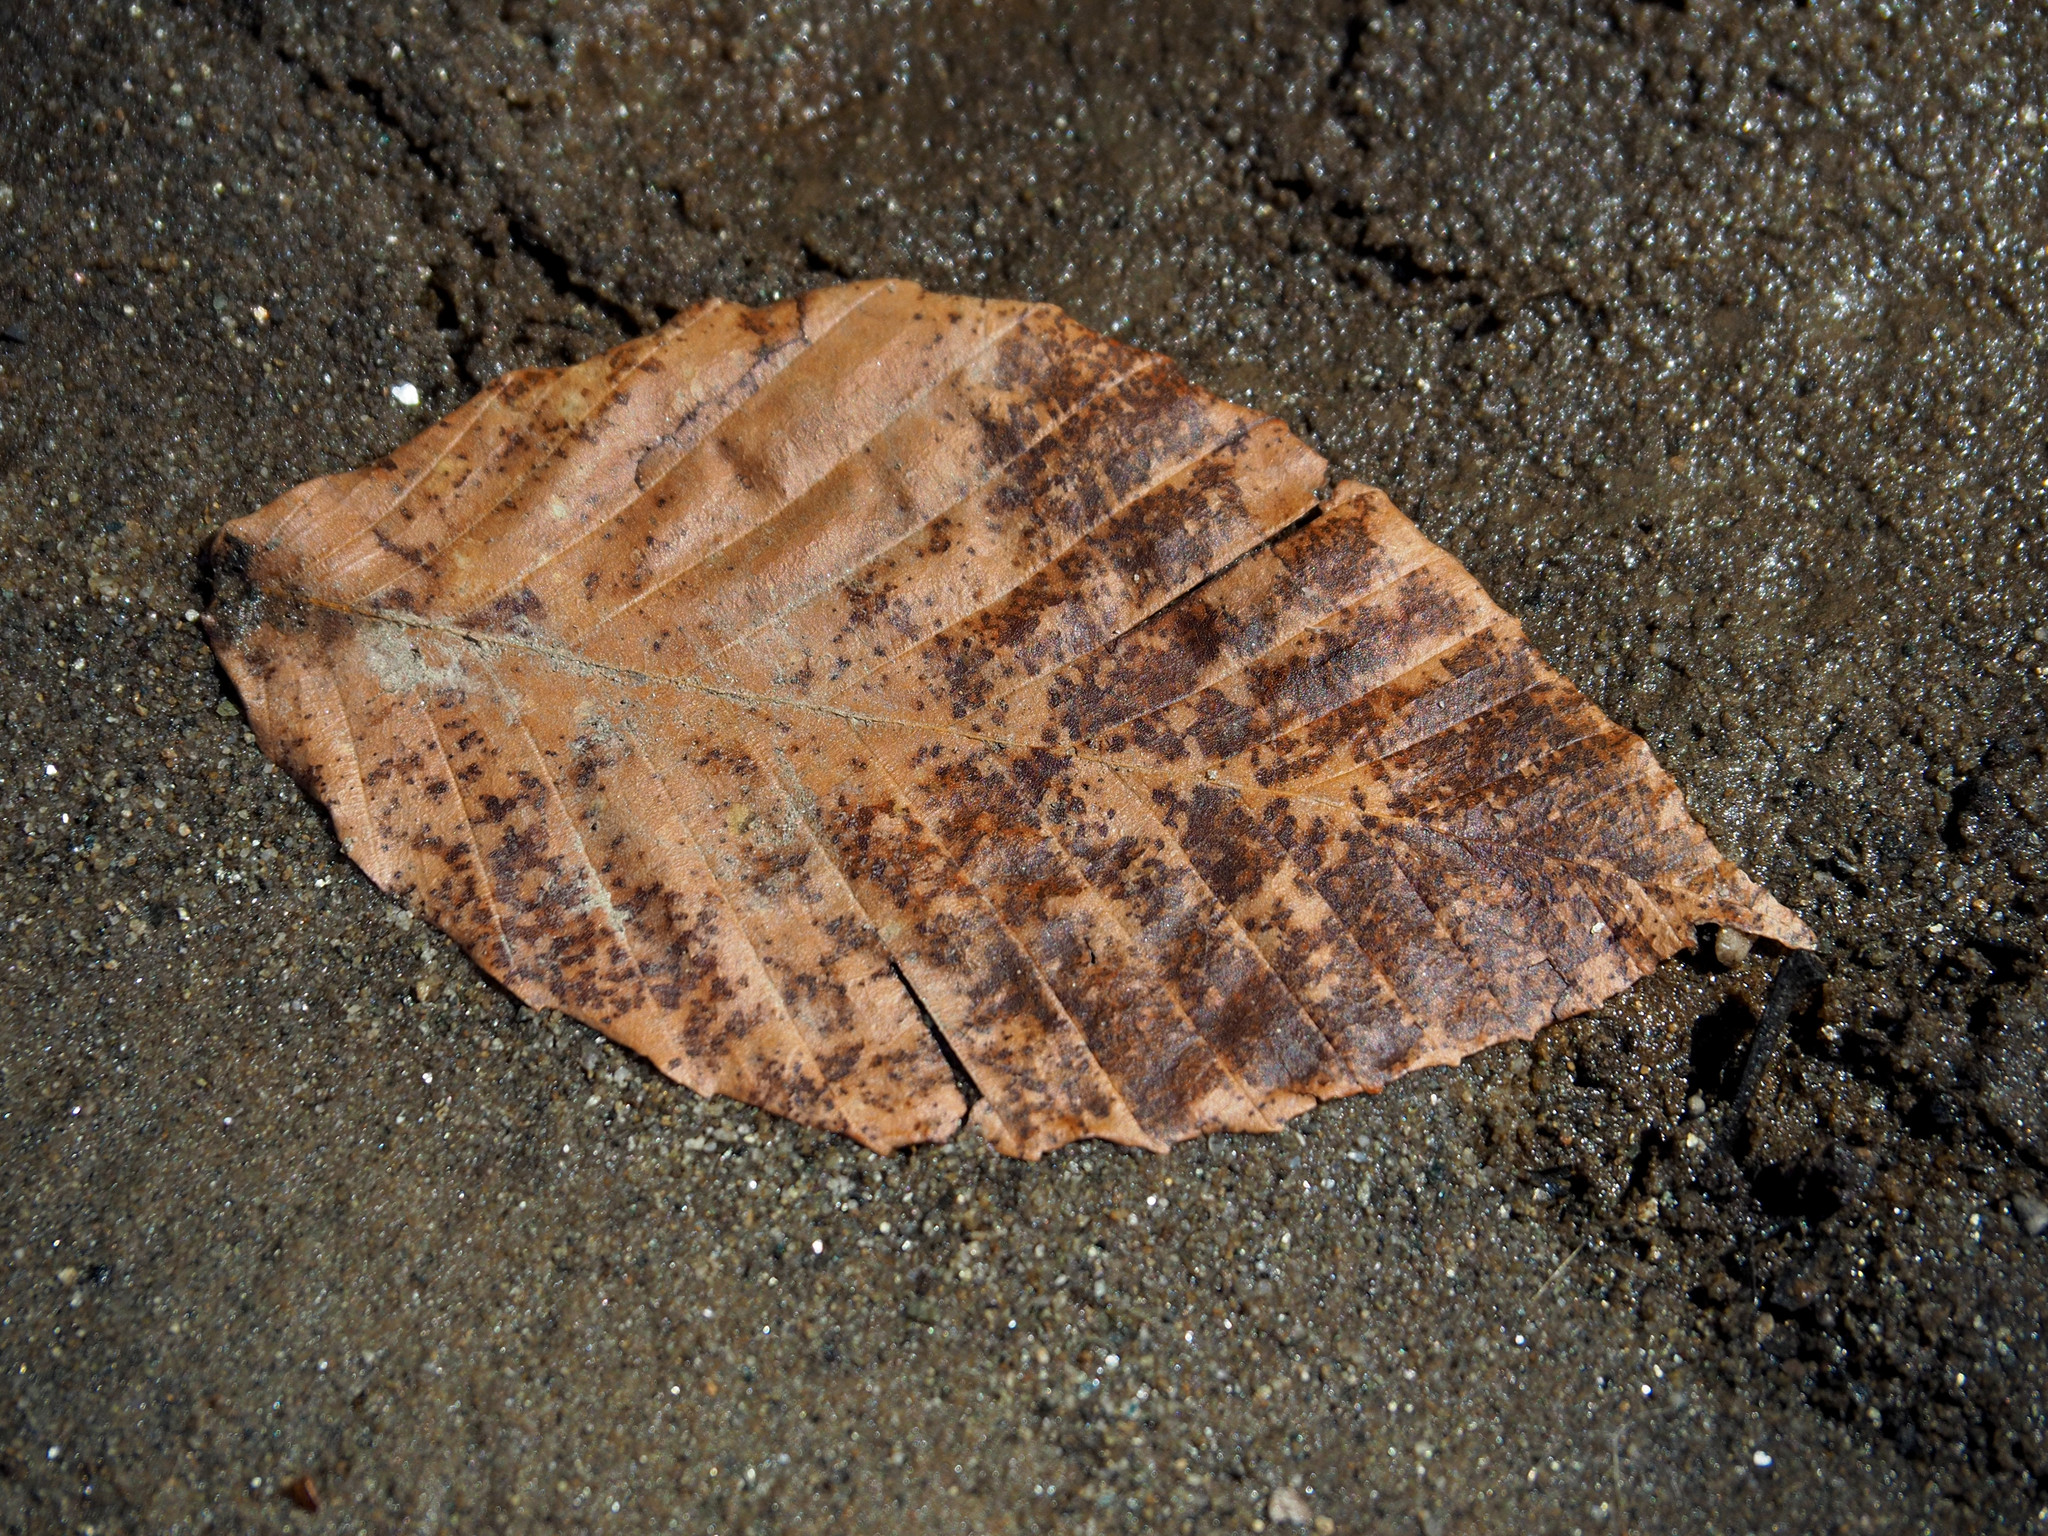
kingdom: Plantae
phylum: Tracheophyta
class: Magnoliopsida
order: Fagales
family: Fagaceae
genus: Fagus
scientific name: Fagus grandifolia
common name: American beech
